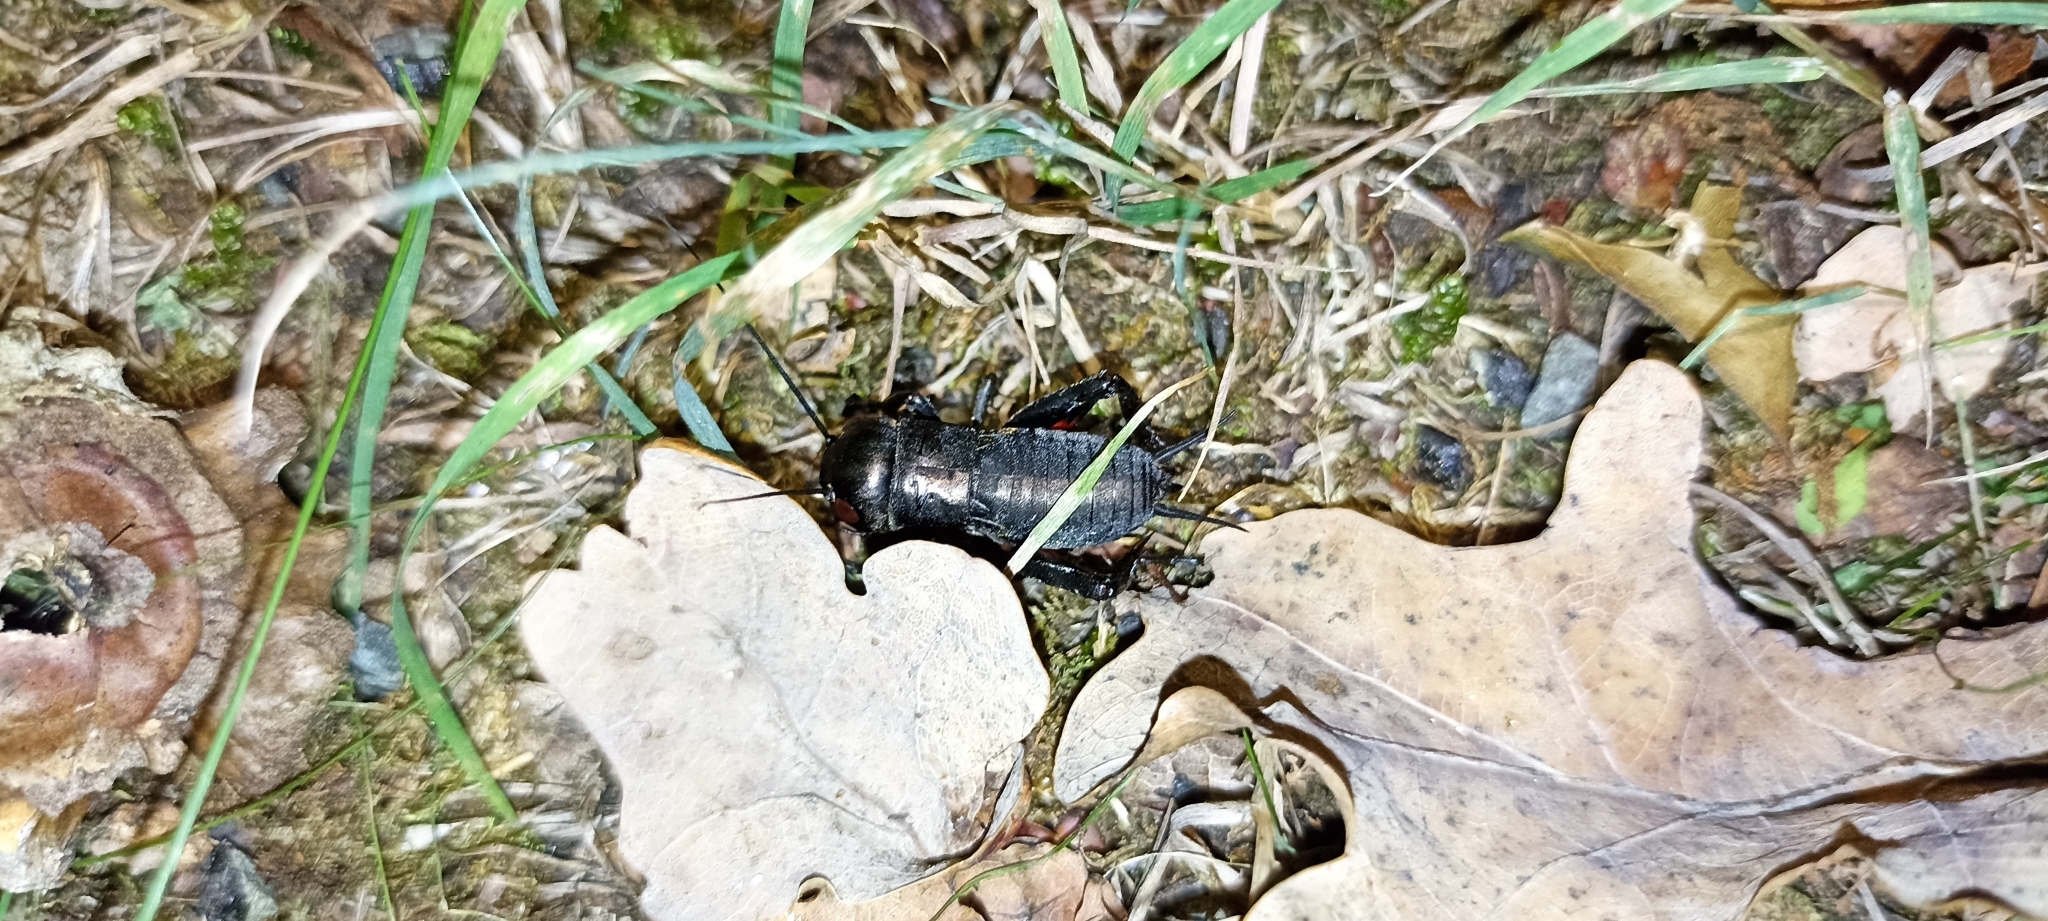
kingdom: Animalia
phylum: Arthropoda
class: Insecta
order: Orthoptera
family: Gryllidae
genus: Gryllus
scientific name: Gryllus campestris
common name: Field cricket
